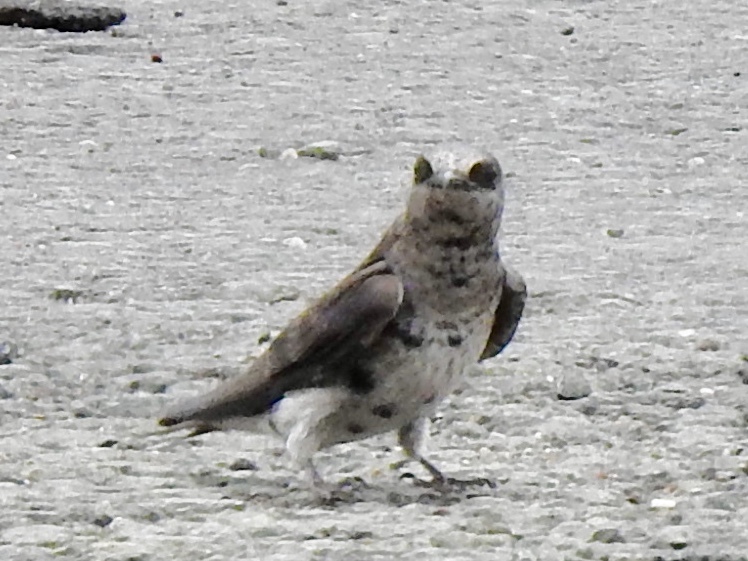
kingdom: Animalia
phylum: Chordata
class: Aves
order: Passeriformes
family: Hirundinidae
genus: Progne
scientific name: Progne subis
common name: Purple martin
